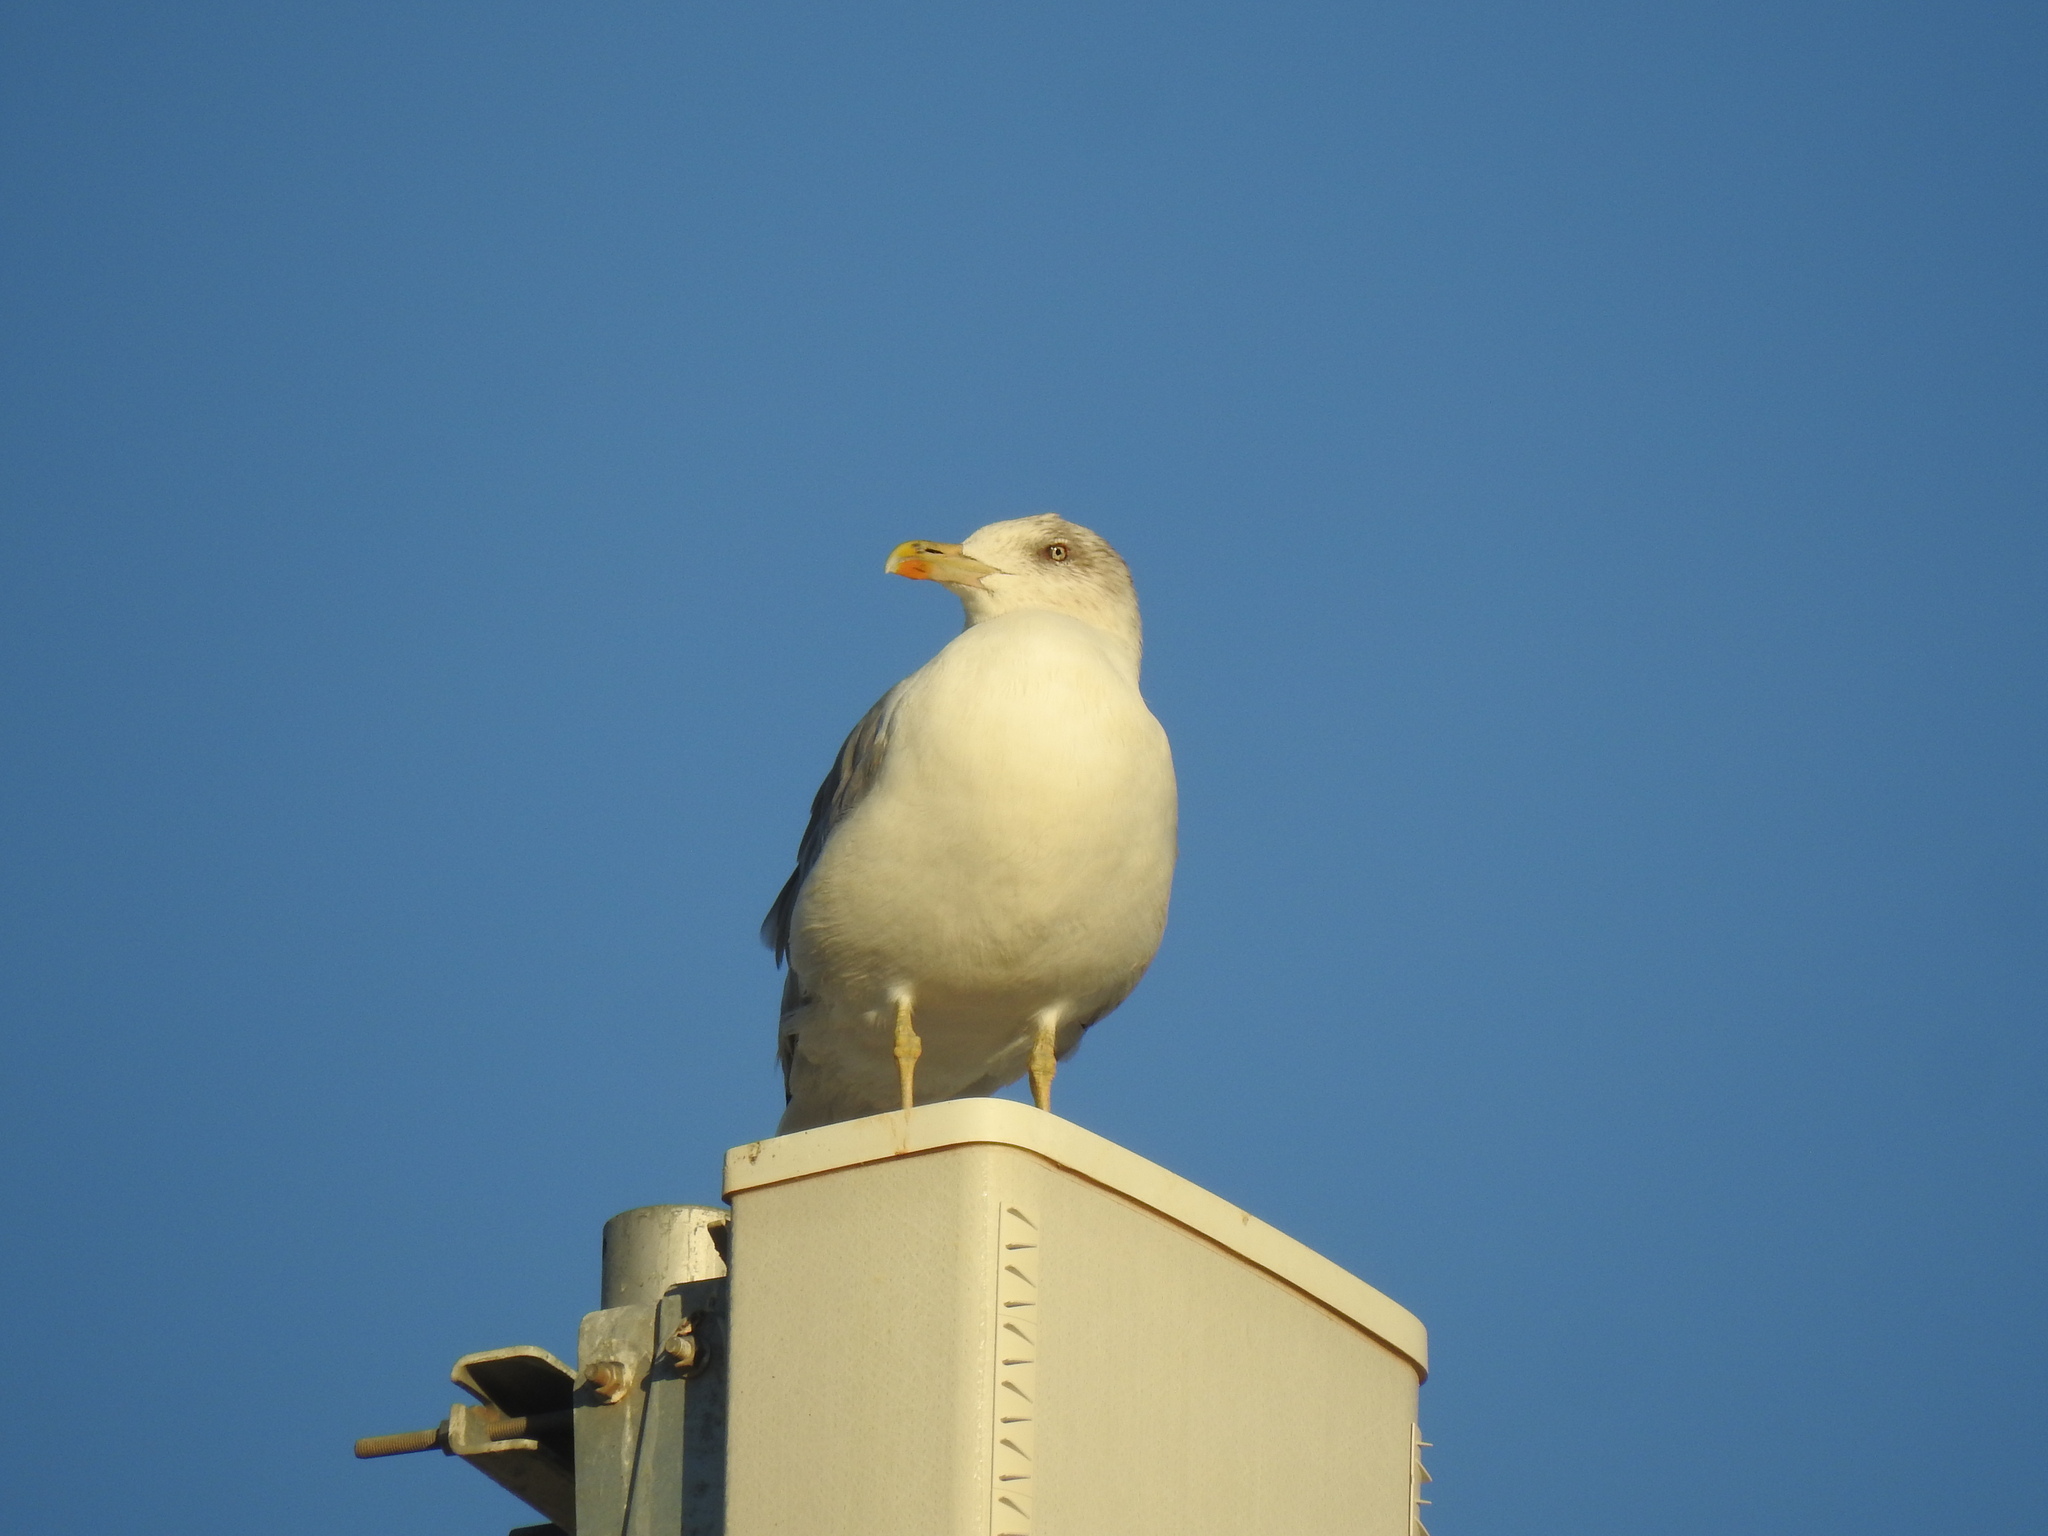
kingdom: Animalia
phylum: Chordata
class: Aves
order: Charadriiformes
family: Laridae
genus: Larus
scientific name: Larus michahellis
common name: Yellow-legged gull
